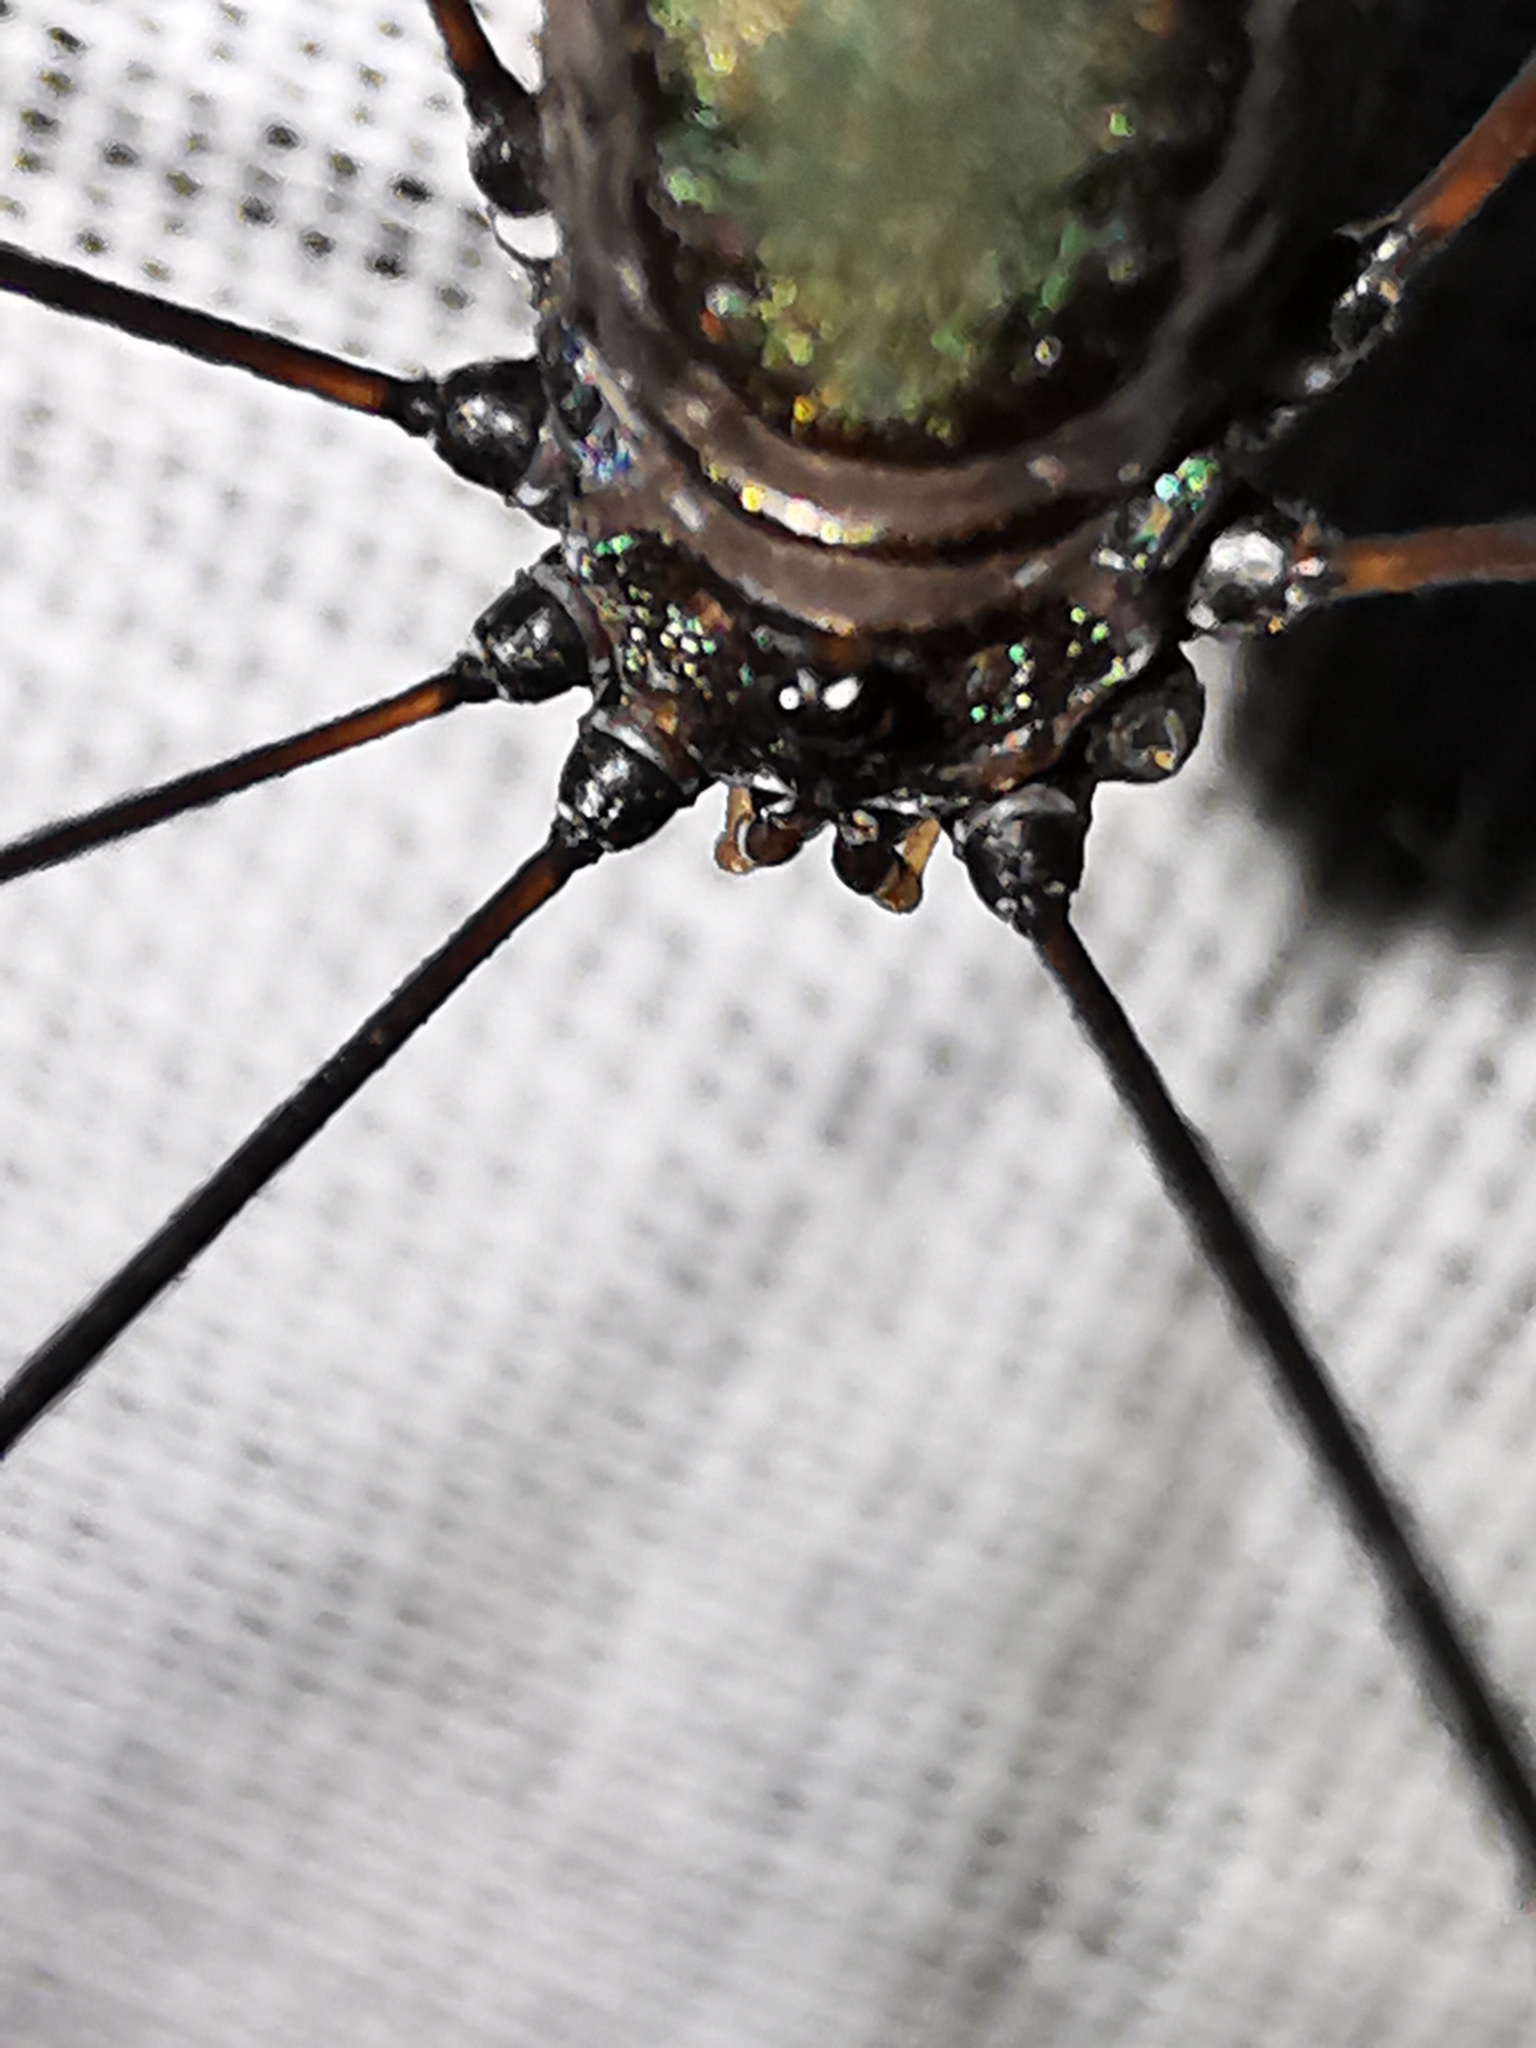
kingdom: Animalia
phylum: Arthropoda
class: Arachnida
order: Opiliones
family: Sclerosomatidae
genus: Leiobunum
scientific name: Leiobunum viridorsum
